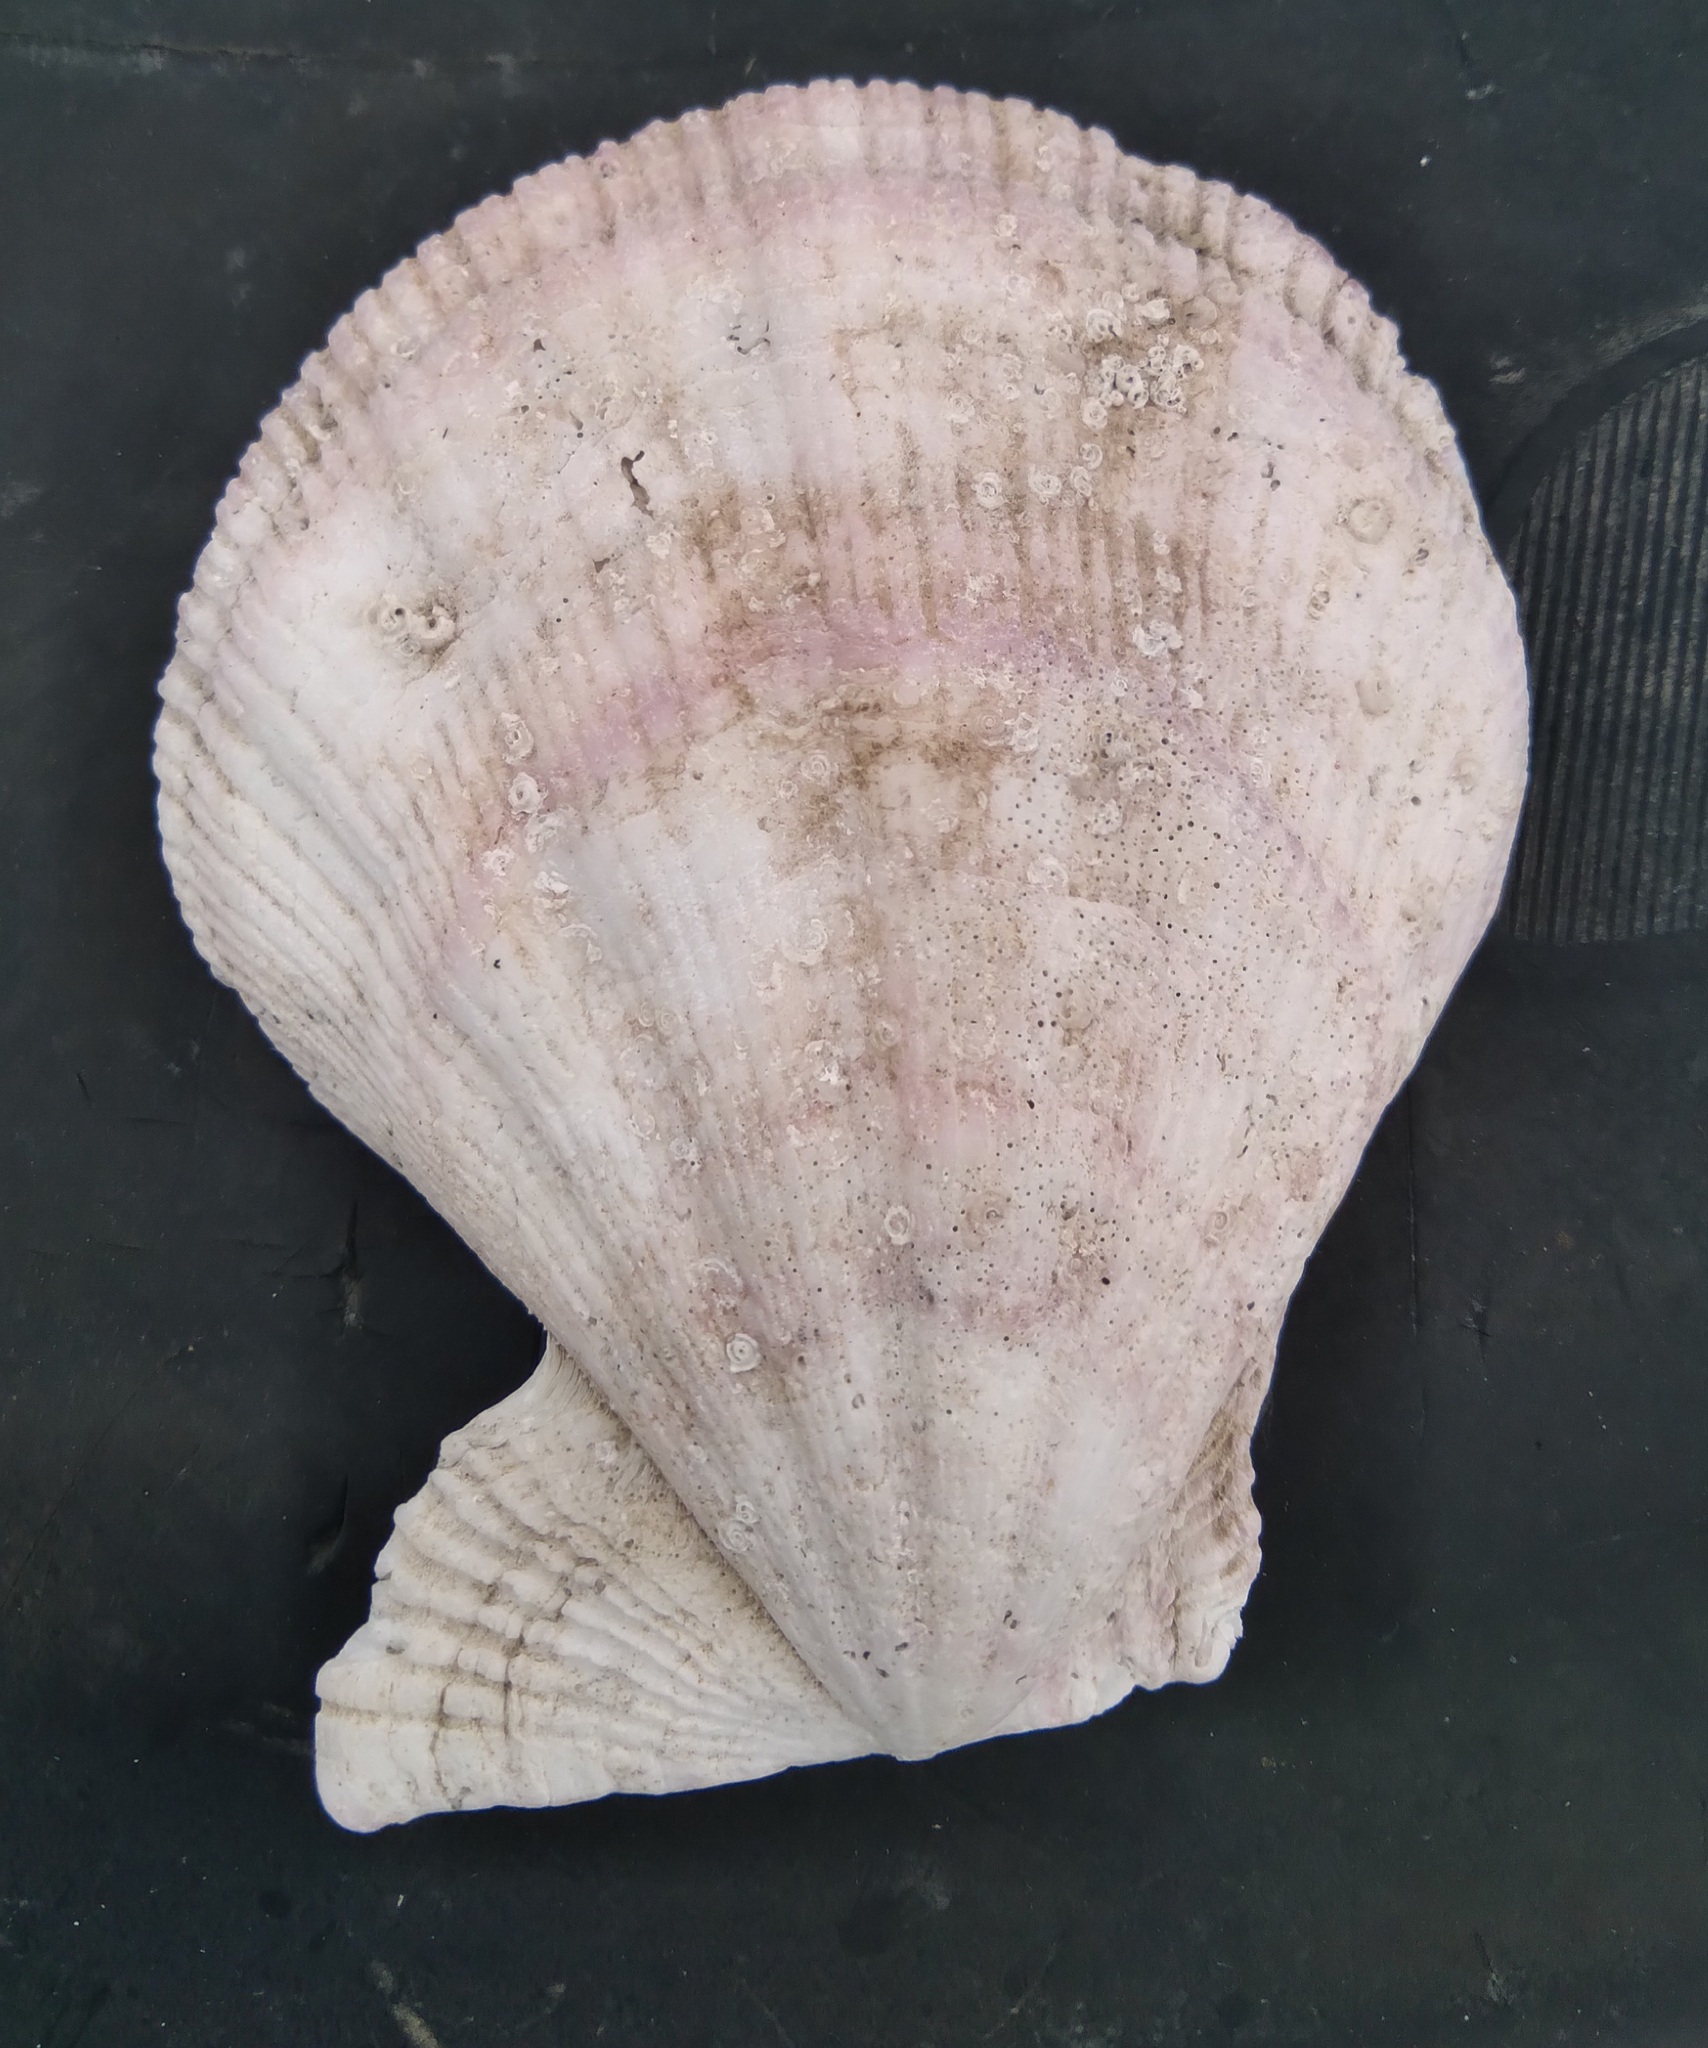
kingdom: Animalia
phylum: Mollusca
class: Bivalvia
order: Pectinida
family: Pectinidae
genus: Swiftopecten
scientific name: Swiftopecten swiftii
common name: Swift's scallop
